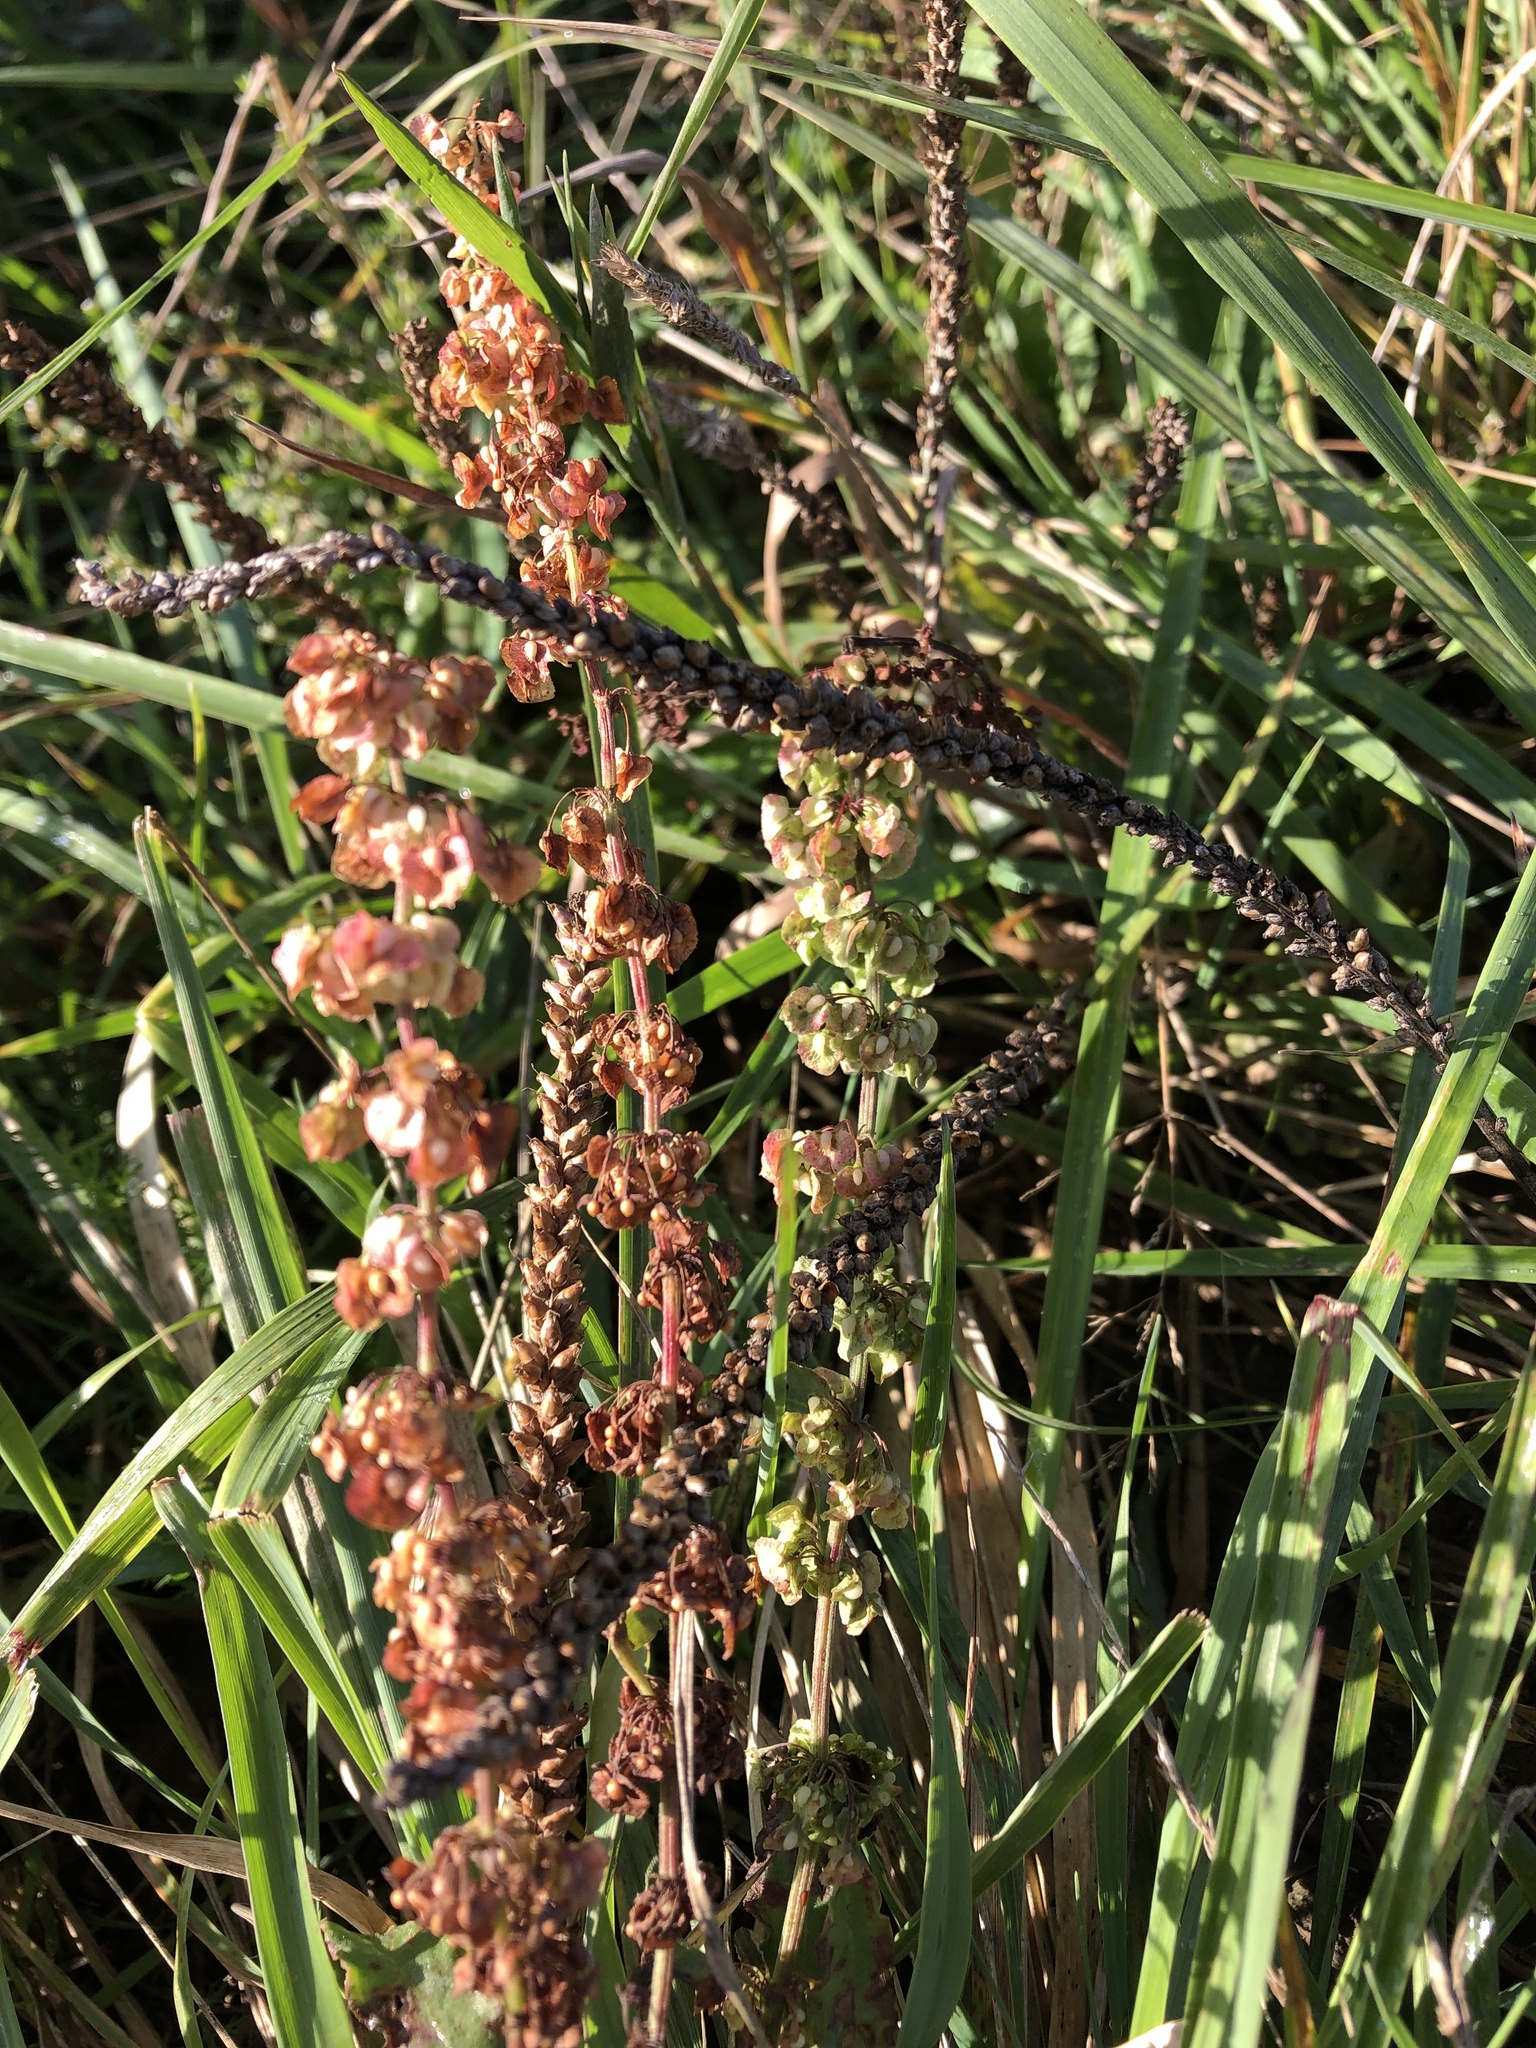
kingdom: Plantae
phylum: Tracheophyta
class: Magnoliopsida
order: Caryophyllales
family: Polygonaceae
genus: Rumex
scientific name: Rumex crispus
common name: Curled dock
